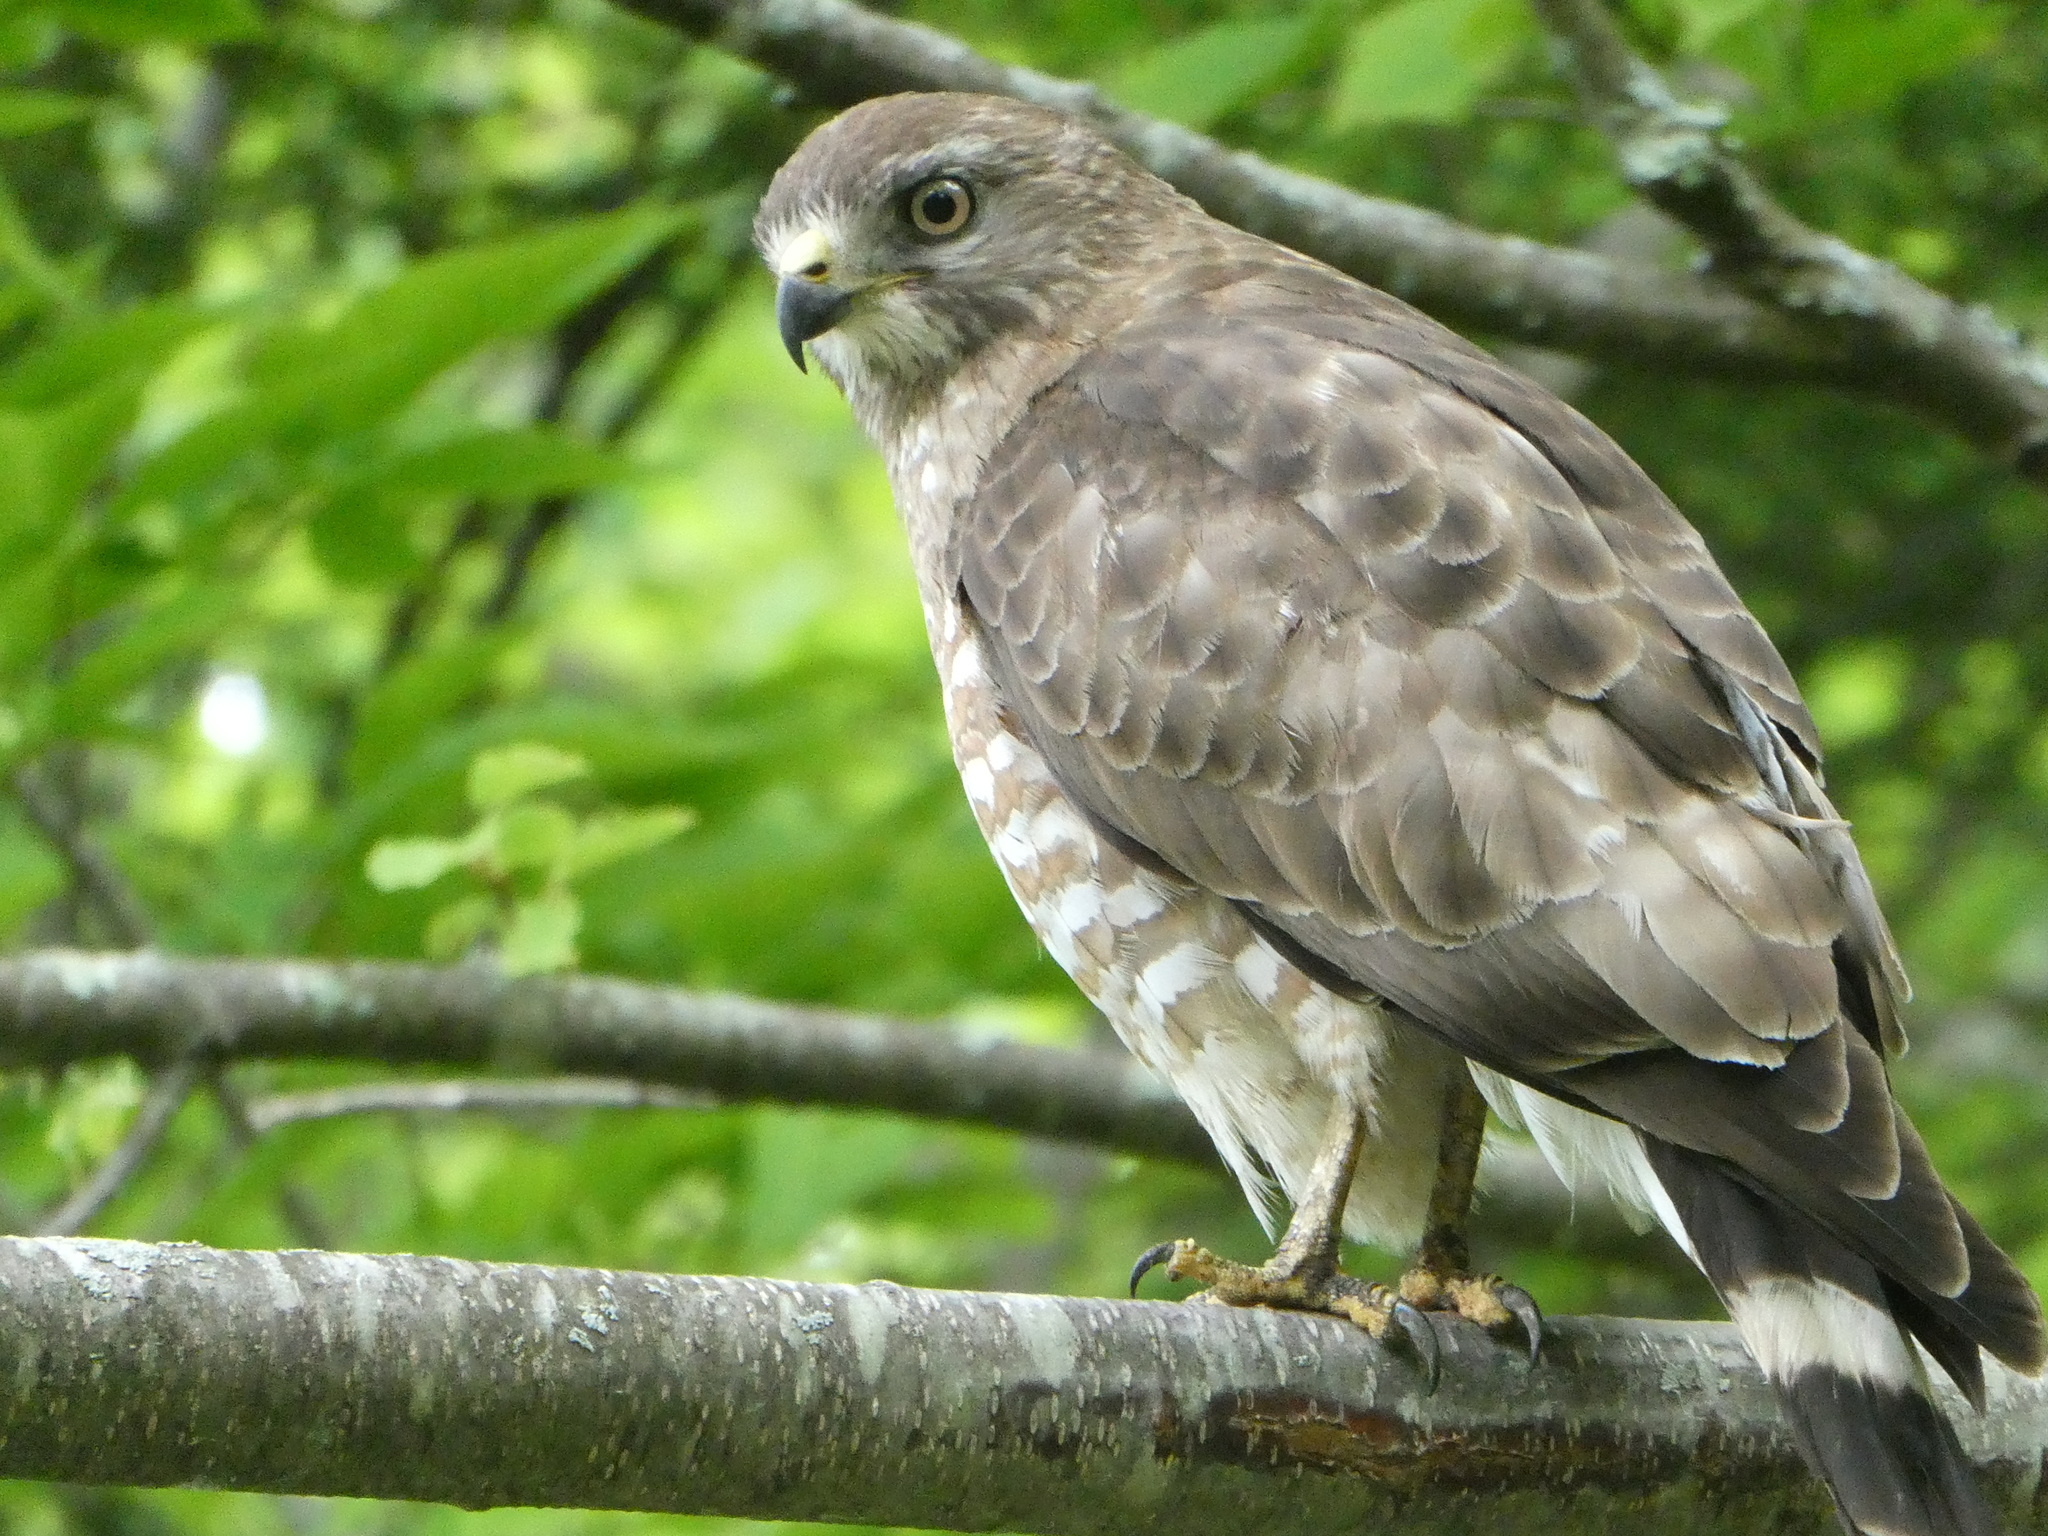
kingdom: Animalia
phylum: Chordata
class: Aves
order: Accipitriformes
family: Accipitridae
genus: Buteo
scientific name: Buteo platypterus
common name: Broad-winged hawk
